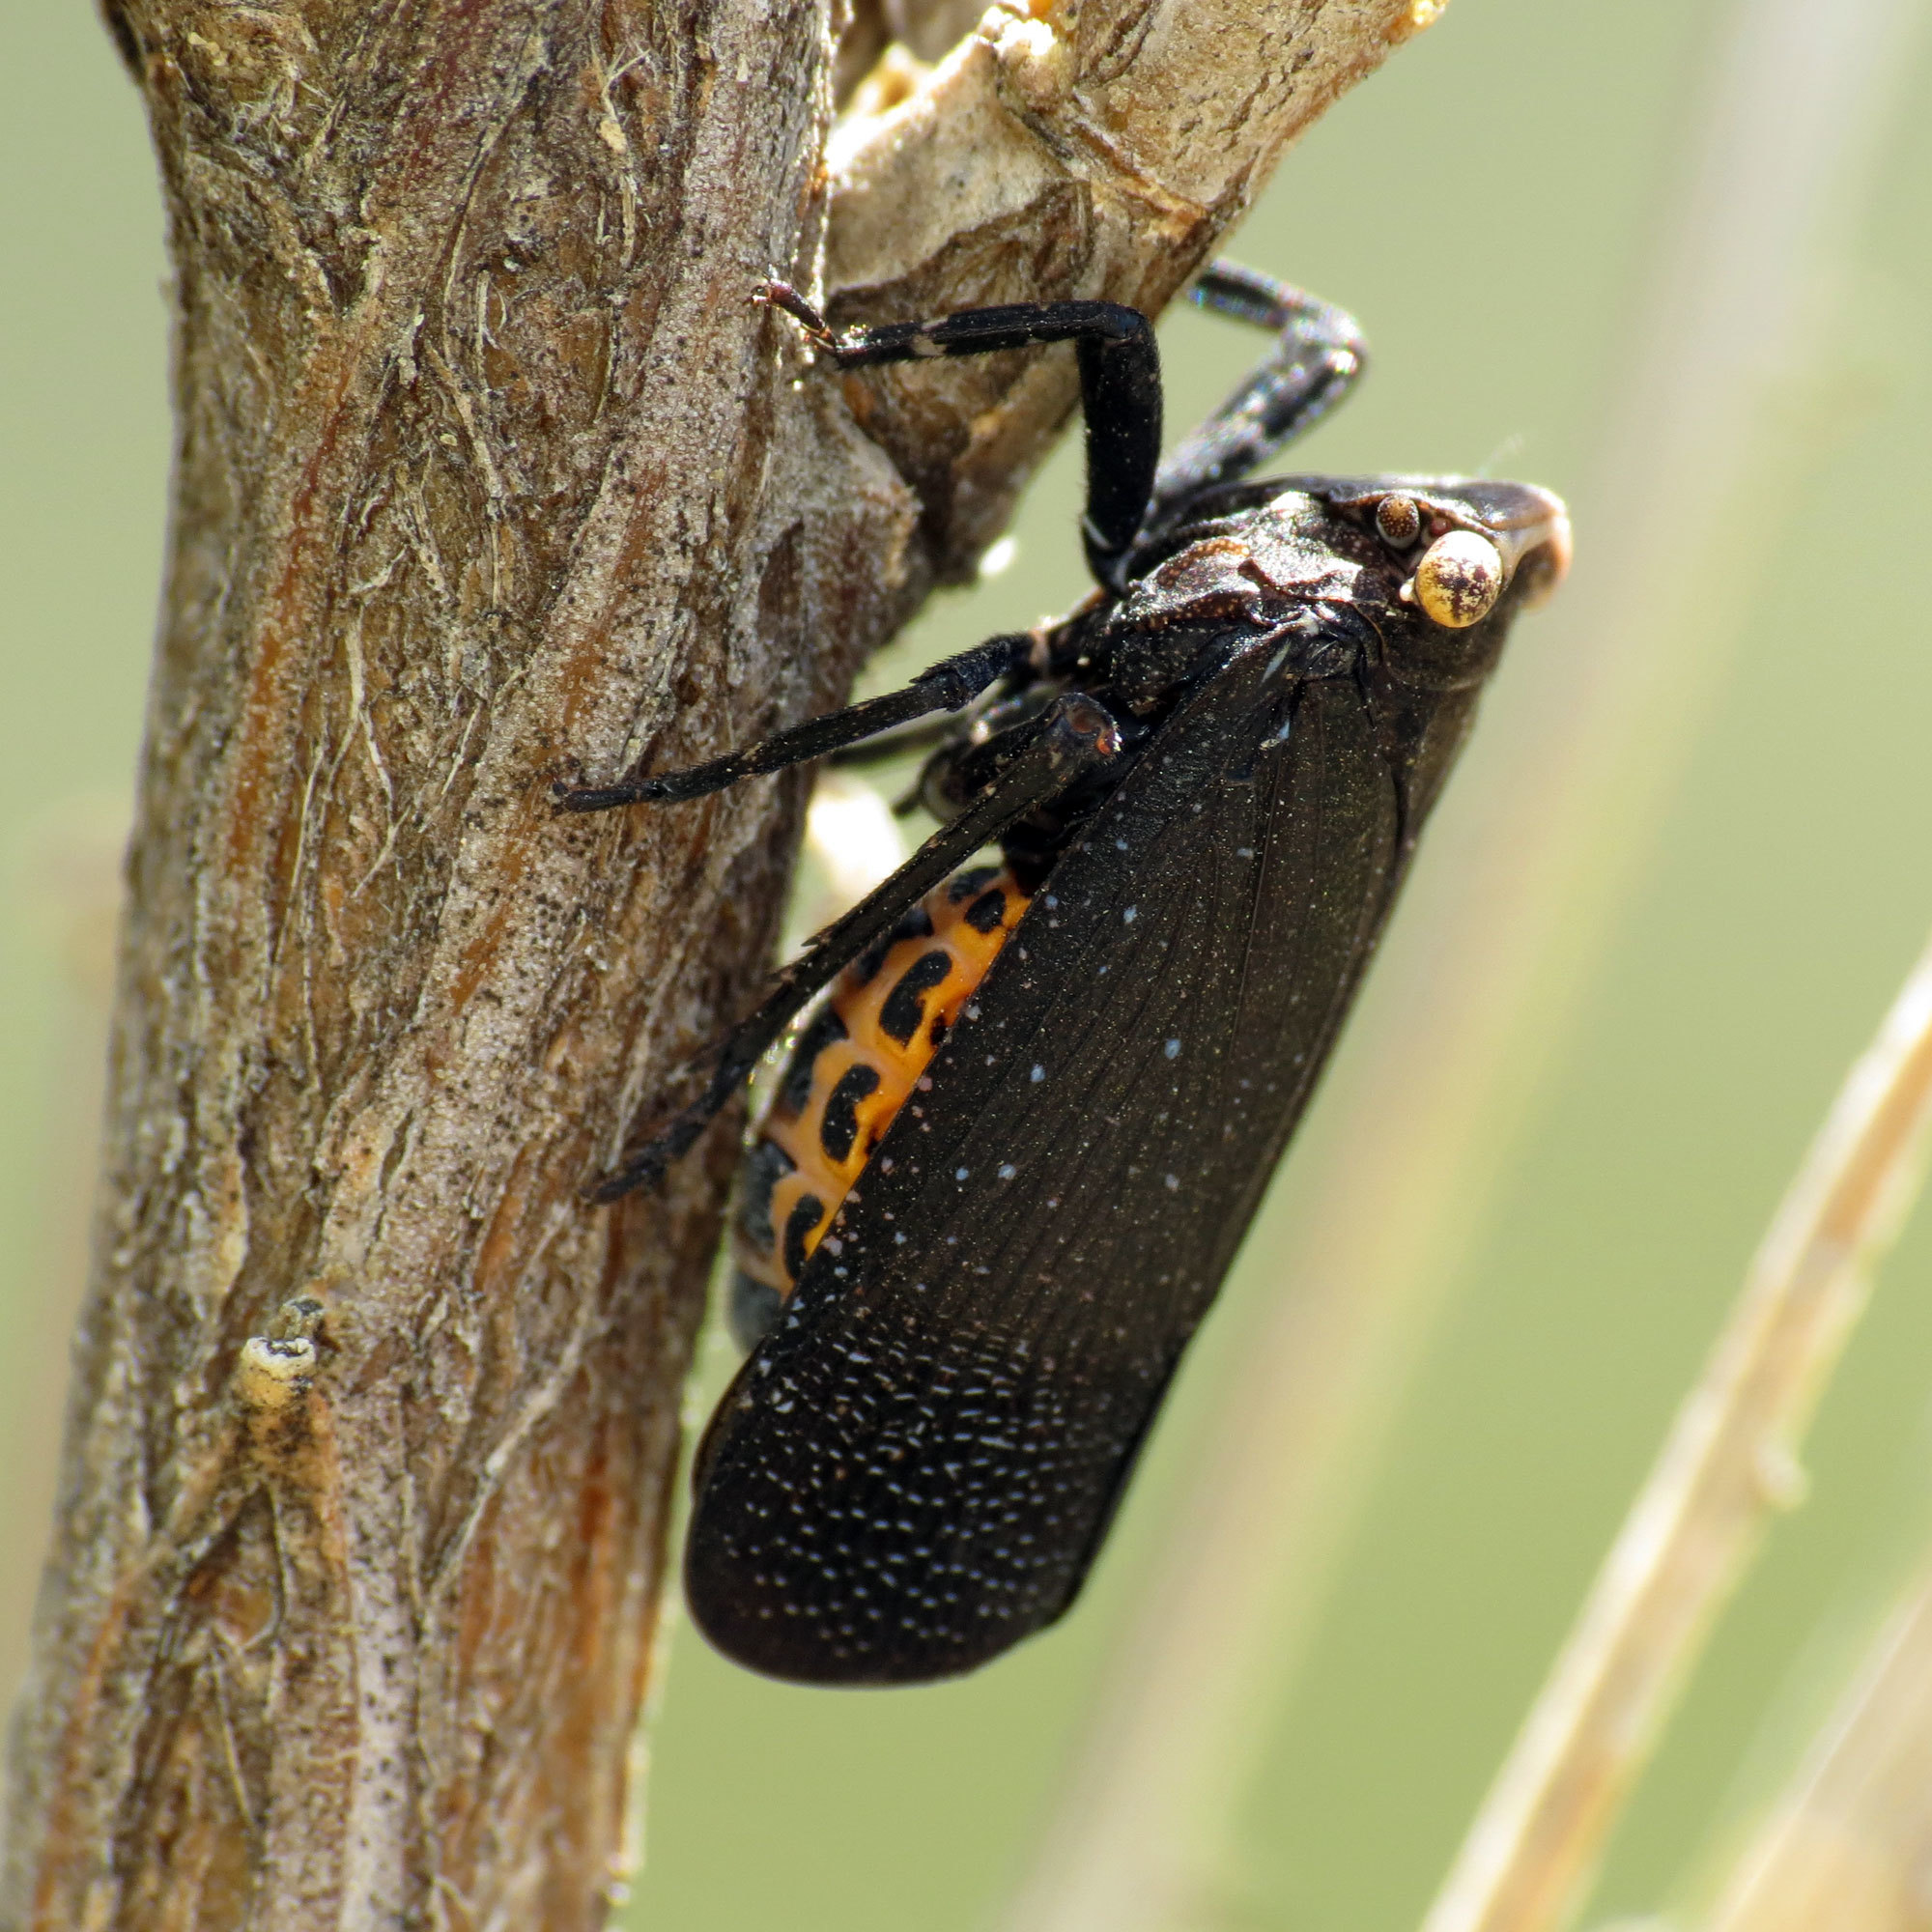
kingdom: Animalia
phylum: Arthropoda
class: Insecta
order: Hemiptera
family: Fulgoridae
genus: Crepusia
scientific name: Crepusia fuliginosa
